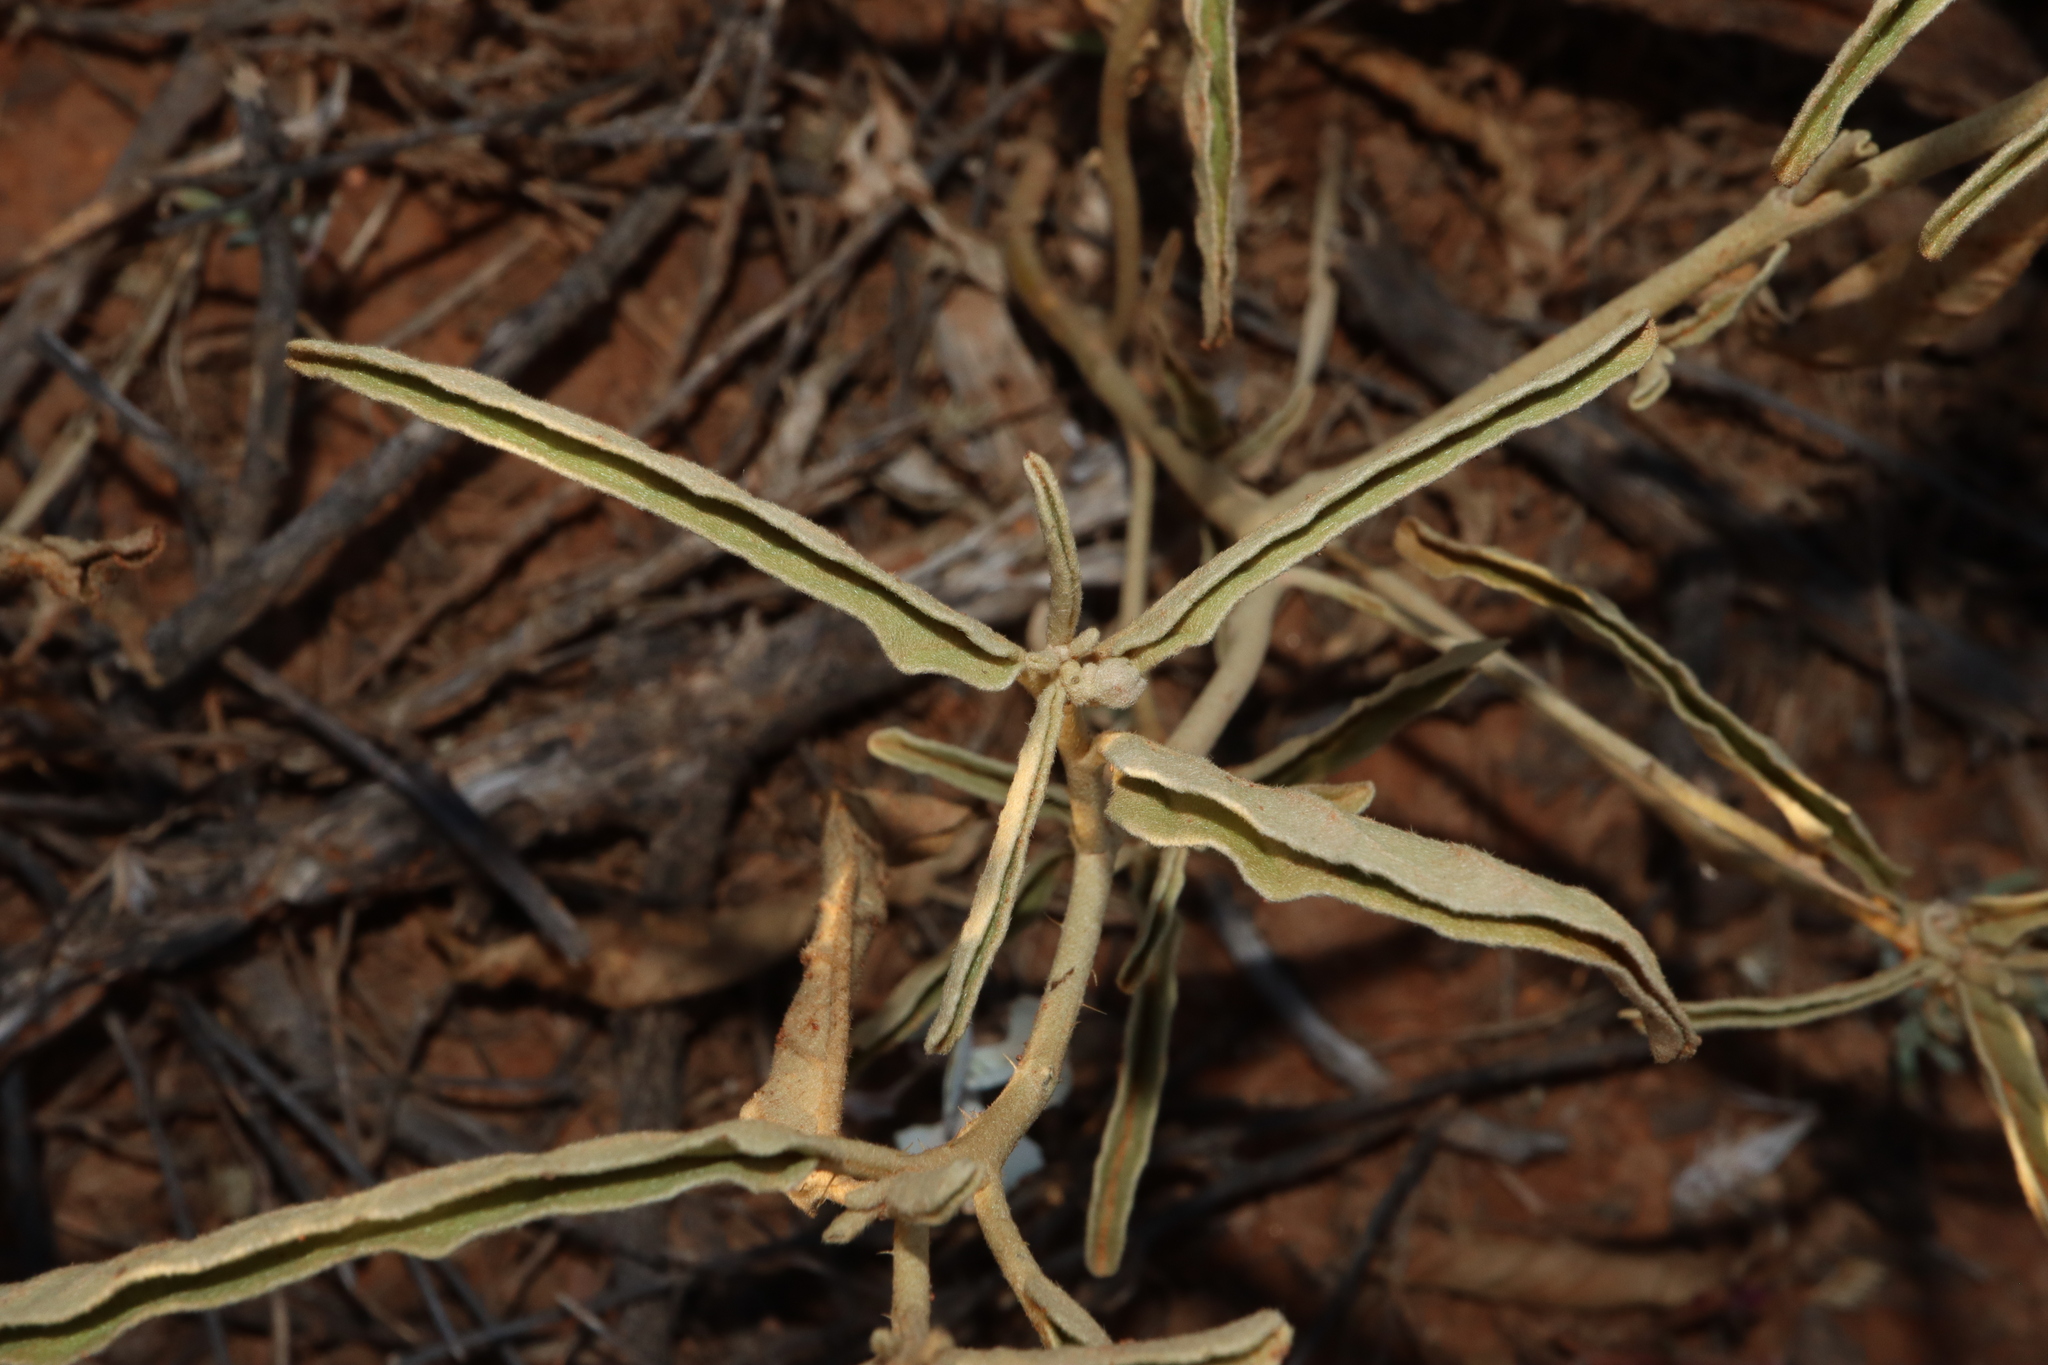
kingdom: Plantae
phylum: Tracheophyta
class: Magnoliopsida
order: Solanales
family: Solanaceae
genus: Solanum
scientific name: Solanum esuriale
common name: Wild tomato
